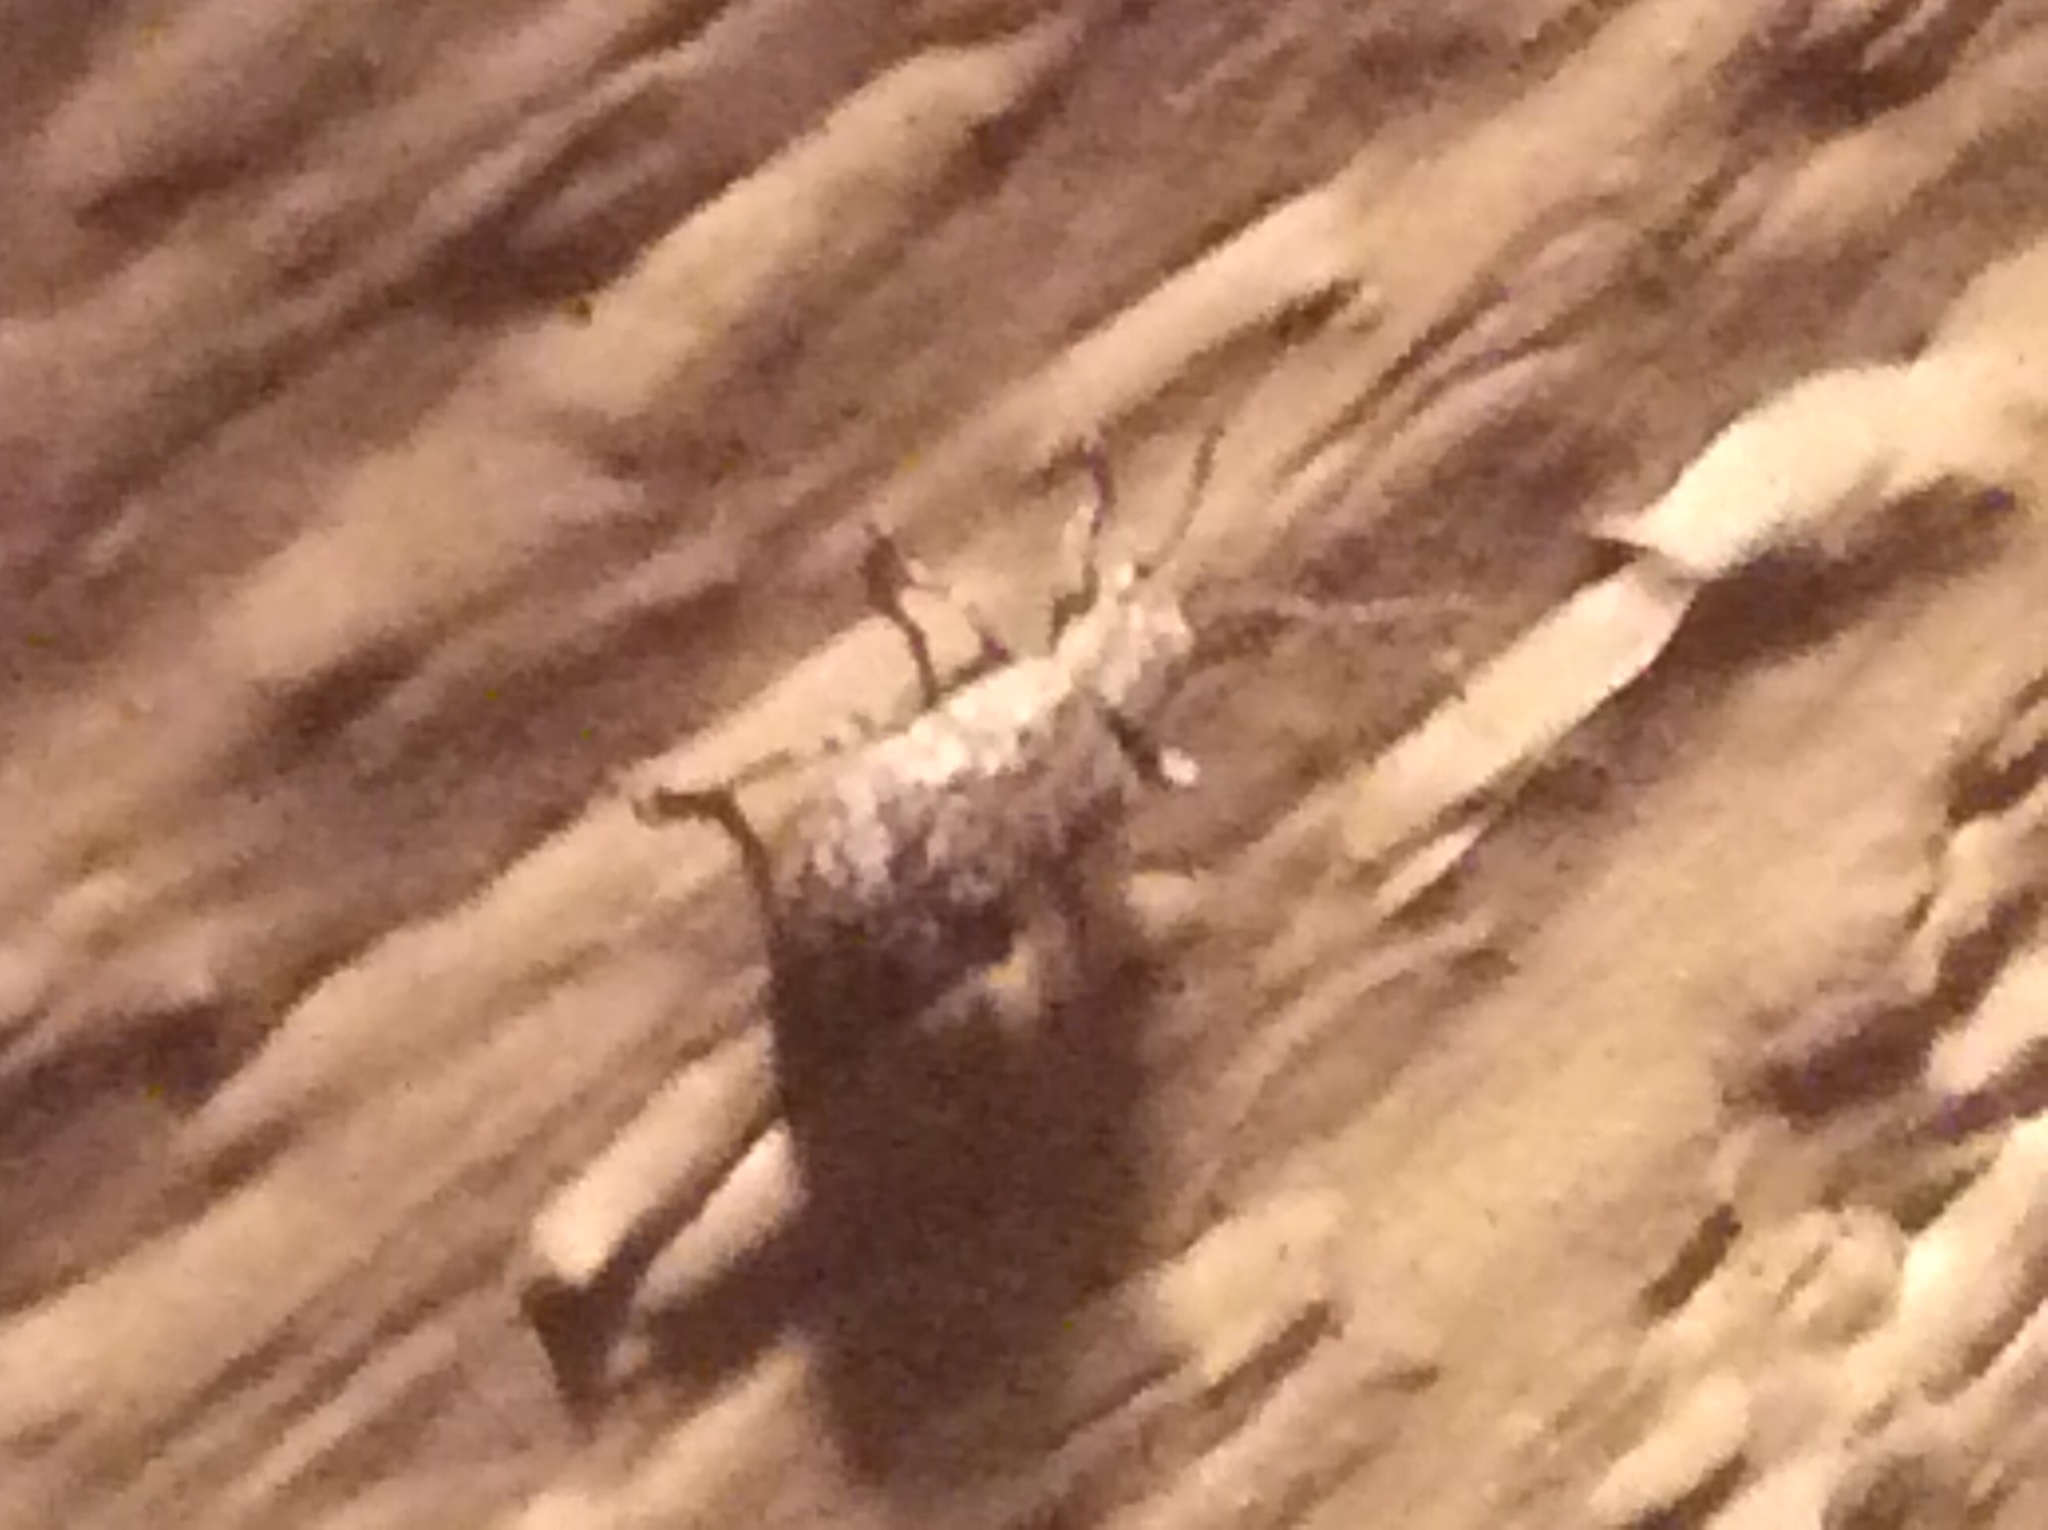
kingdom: Animalia
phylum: Arthropoda
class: Insecta
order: Coleoptera
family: Curculionidae
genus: Pseudoedophrys
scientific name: Pseudoedophrys hilleri
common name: Weevil
